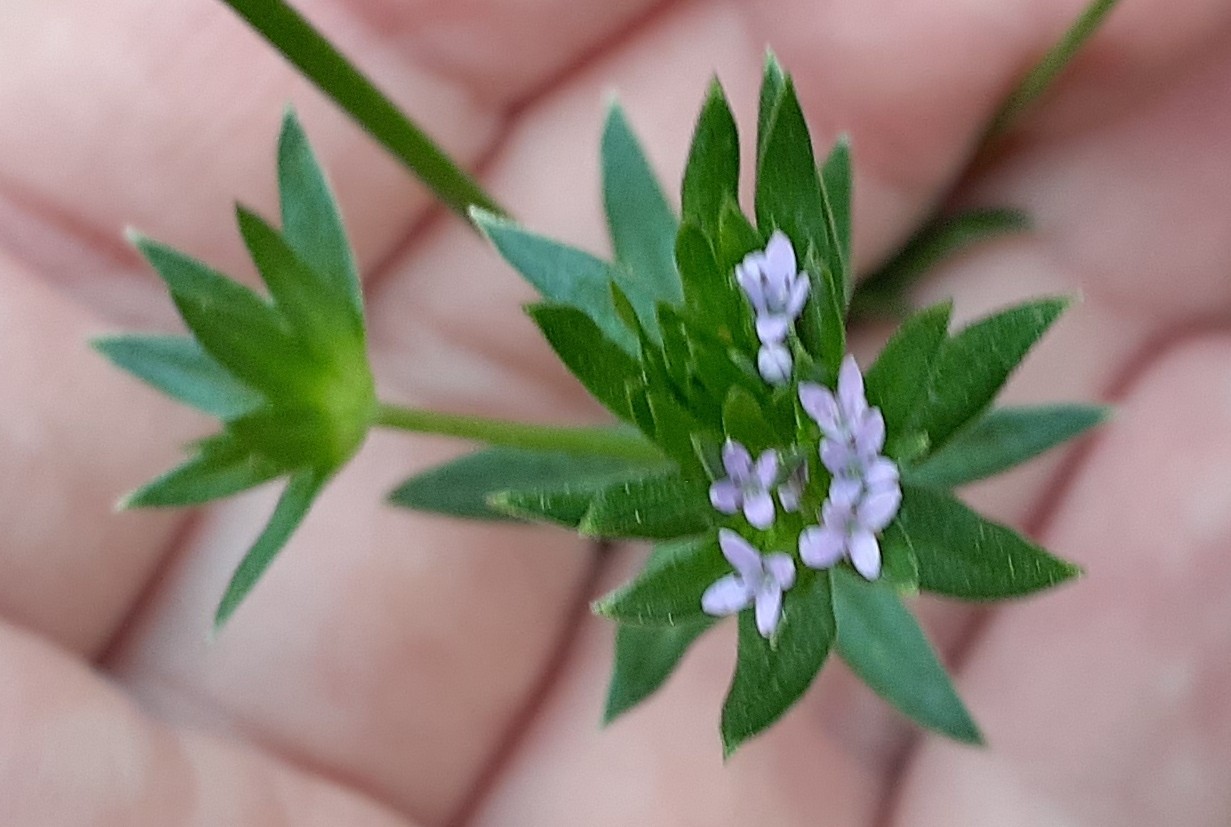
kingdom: Plantae
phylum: Tracheophyta
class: Magnoliopsida
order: Gentianales
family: Rubiaceae
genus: Sherardia
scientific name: Sherardia arvensis
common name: Field madder
